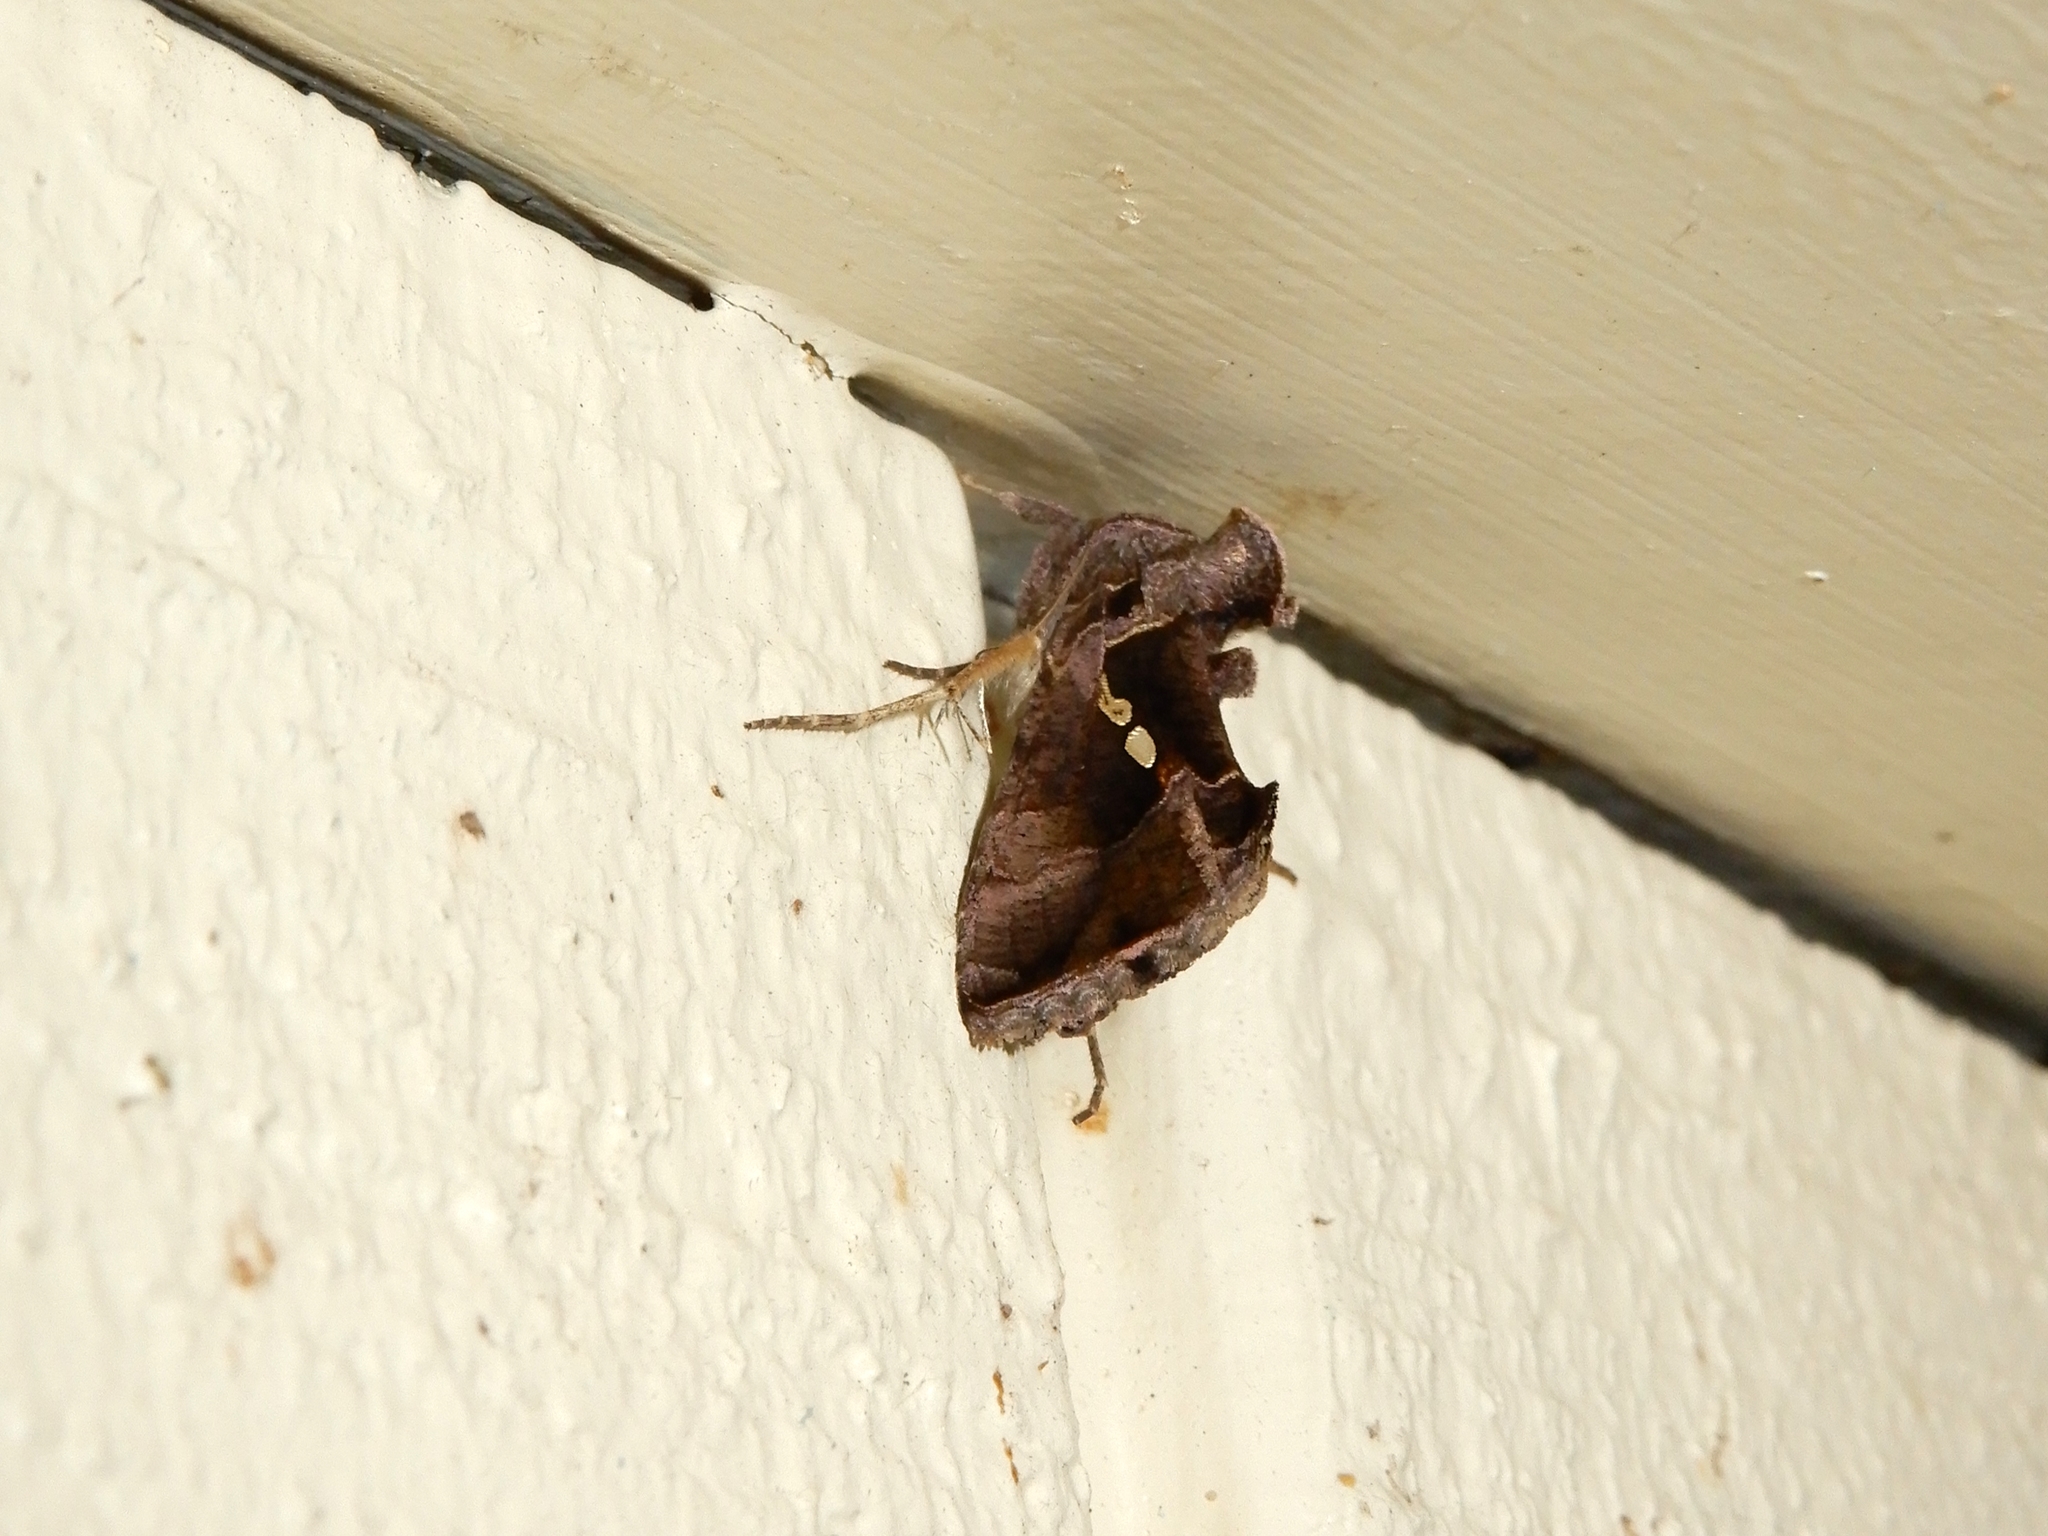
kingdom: Animalia
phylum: Arthropoda
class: Insecta
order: Lepidoptera
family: Noctuidae
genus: Chrysodeixis
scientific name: Chrysodeixis eriosoma
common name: Green garden looper
